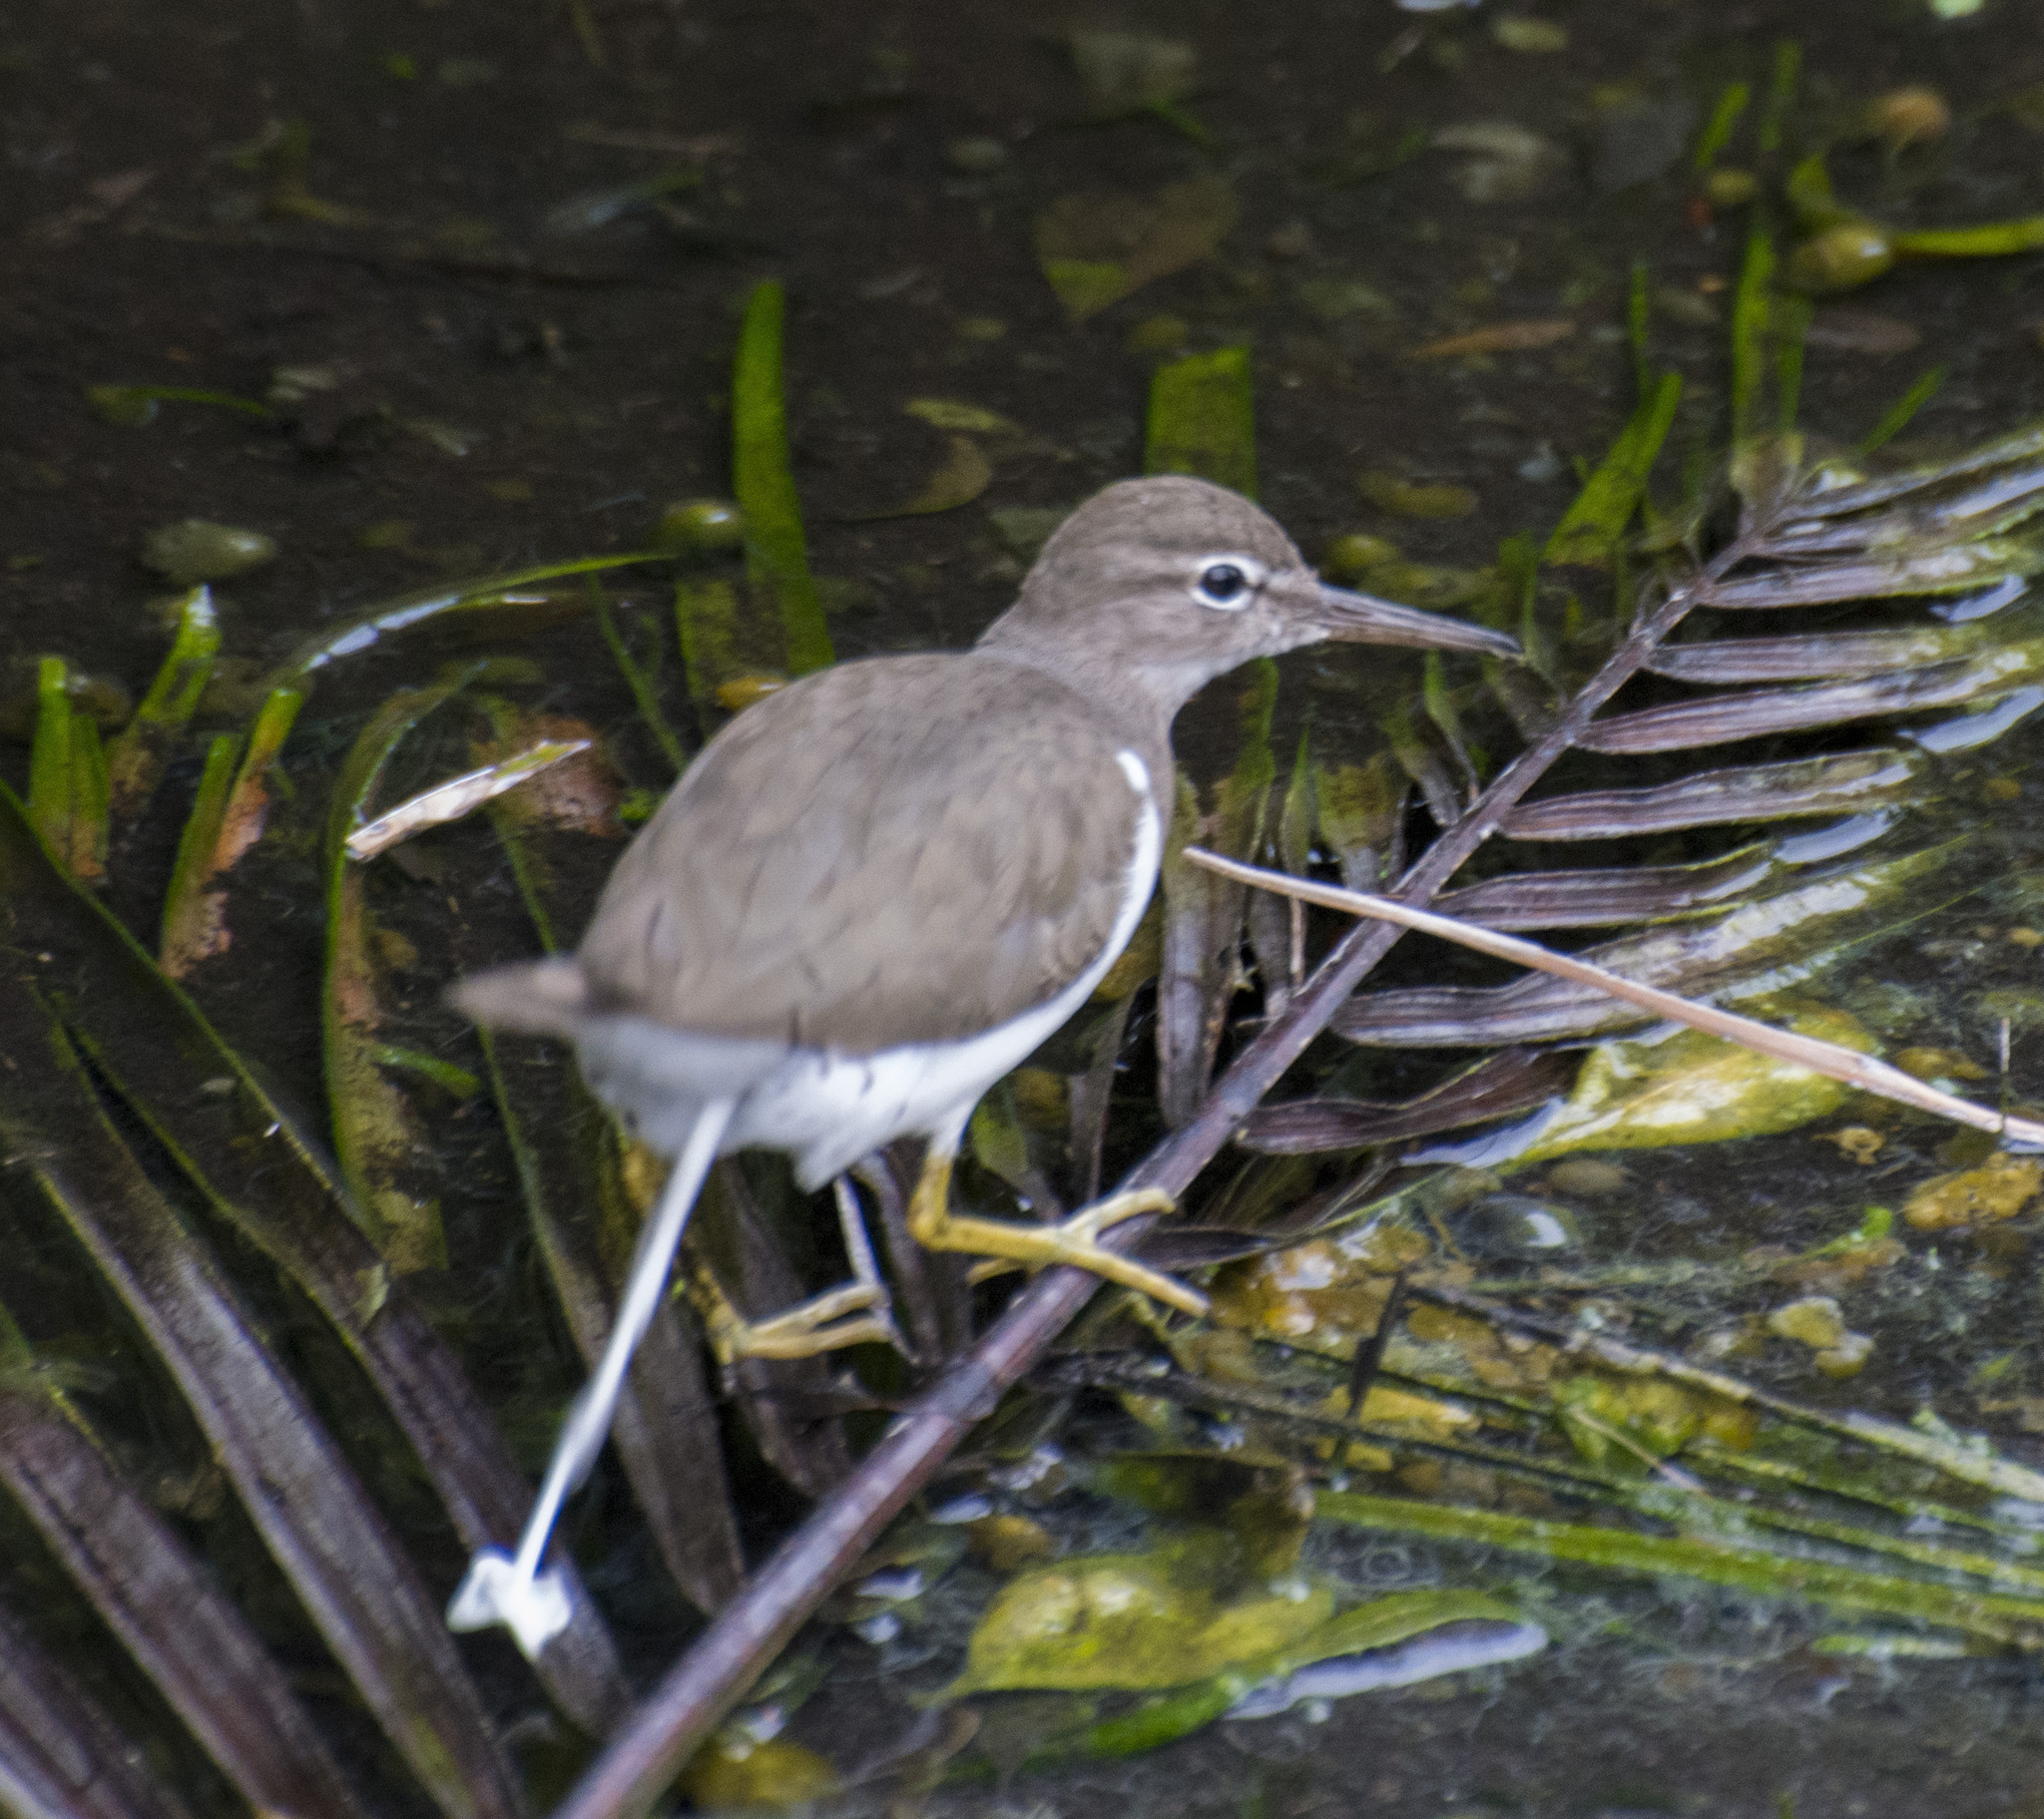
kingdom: Animalia
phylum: Chordata
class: Aves
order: Charadriiformes
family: Scolopacidae
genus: Actitis
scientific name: Actitis macularius
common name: Spotted sandpiper
